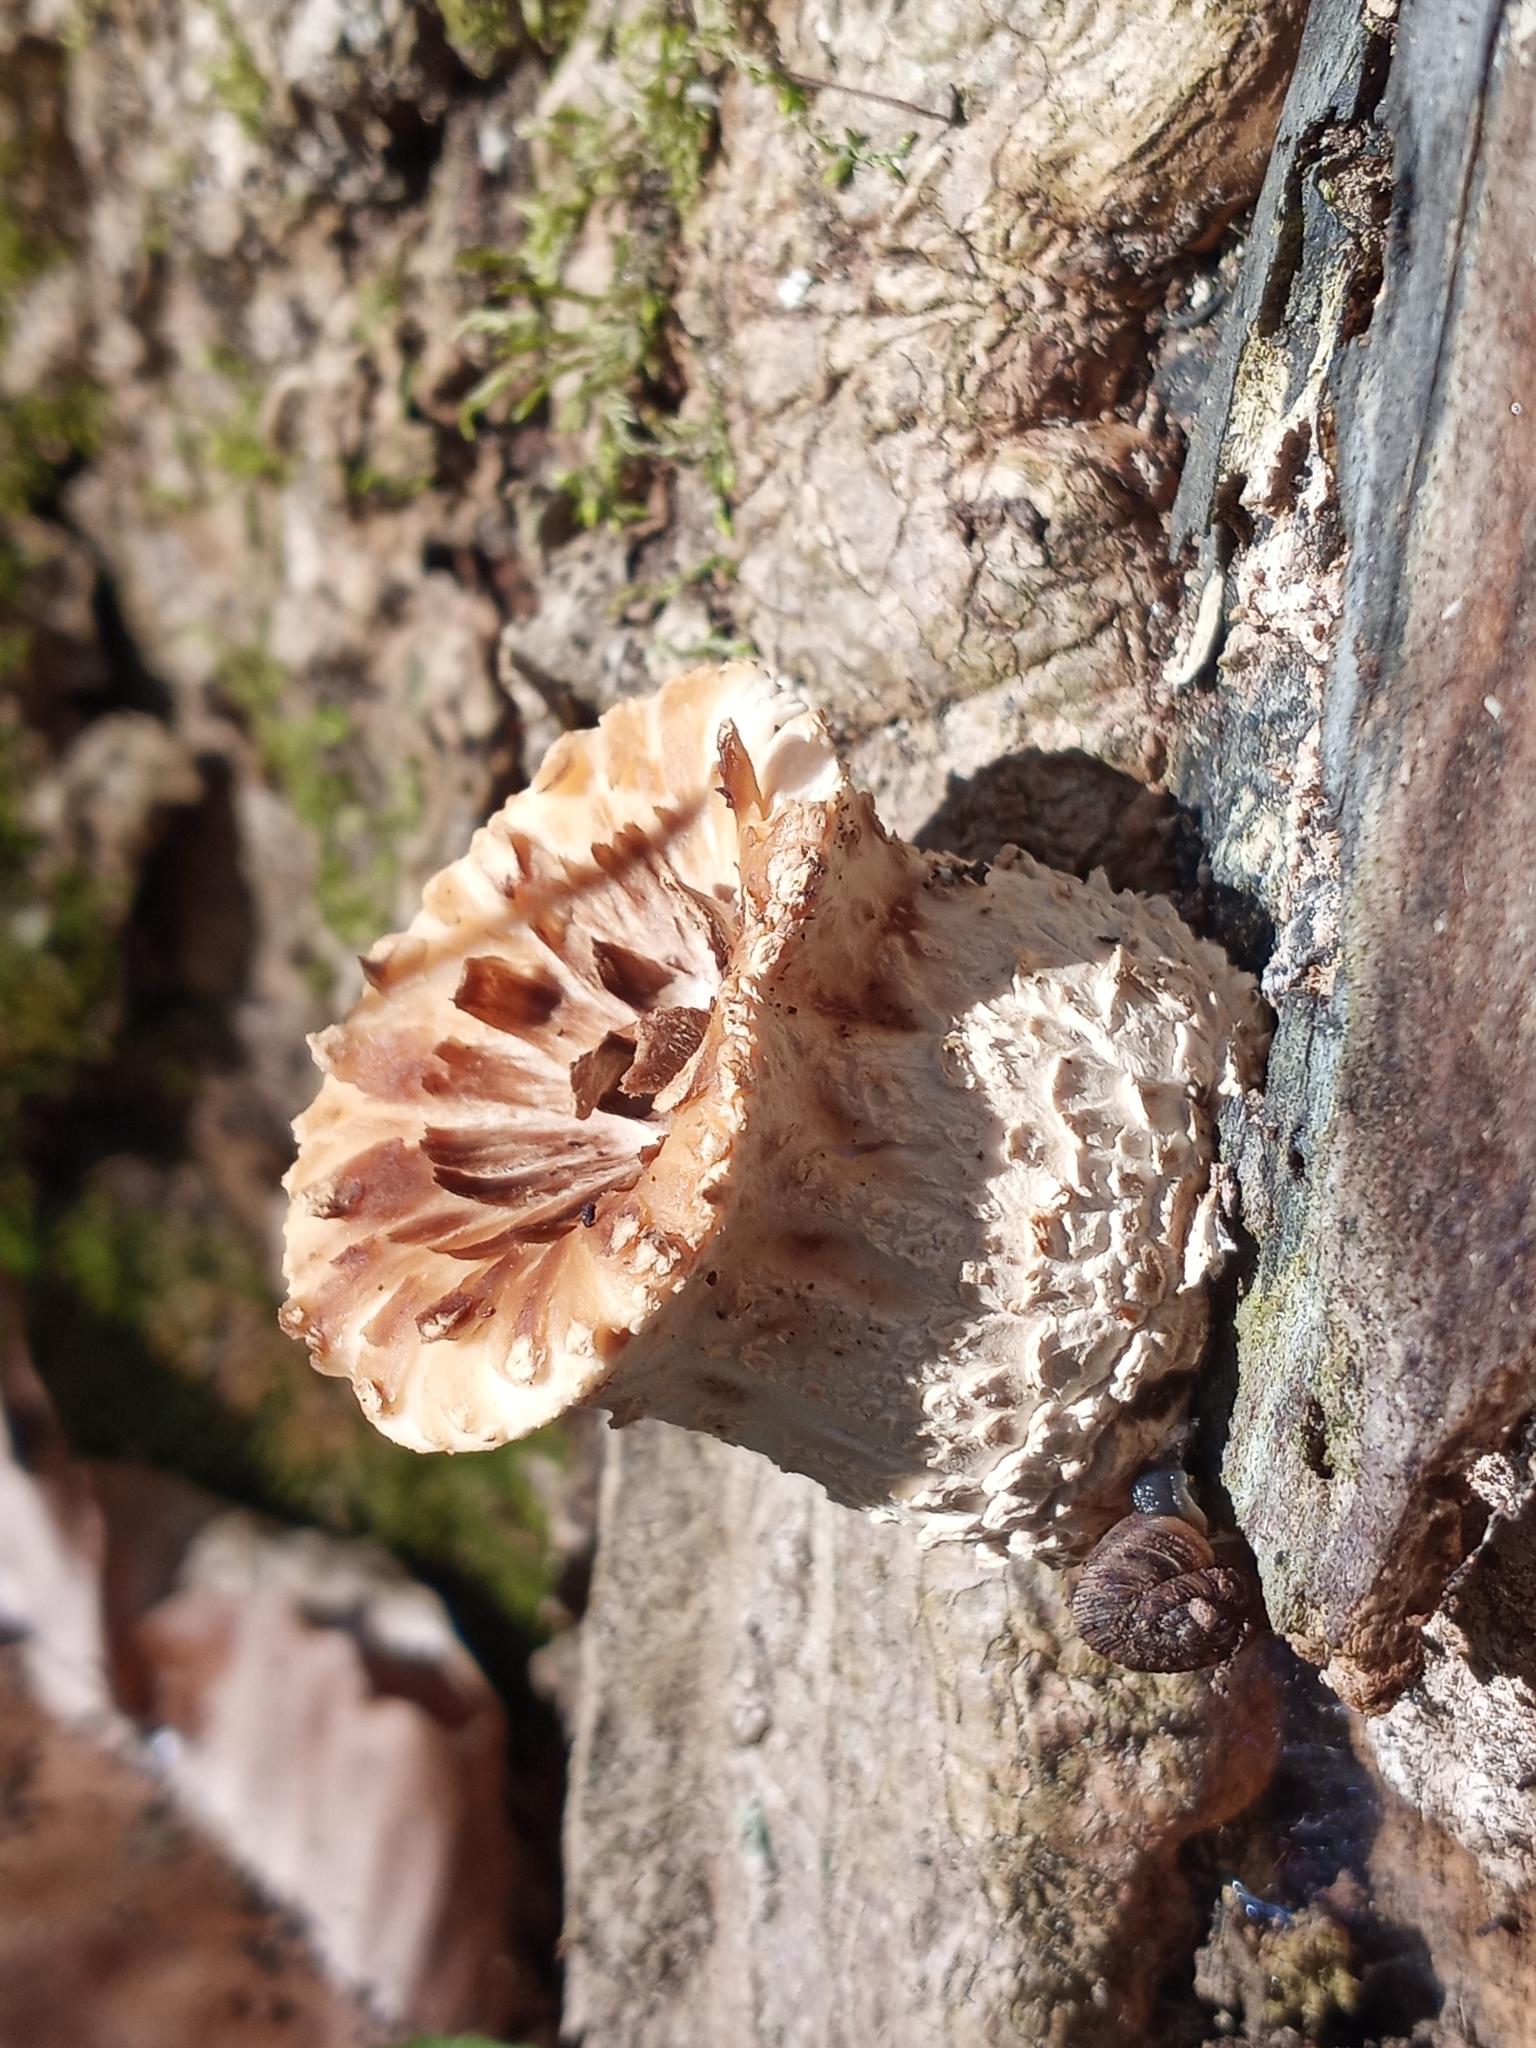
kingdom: Fungi
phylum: Basidiomycota
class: Agaricomycetes
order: Polyporales
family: Polyporaceae
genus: Cerioporus
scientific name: Cerioporus squamosus
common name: Dryad's saddle
